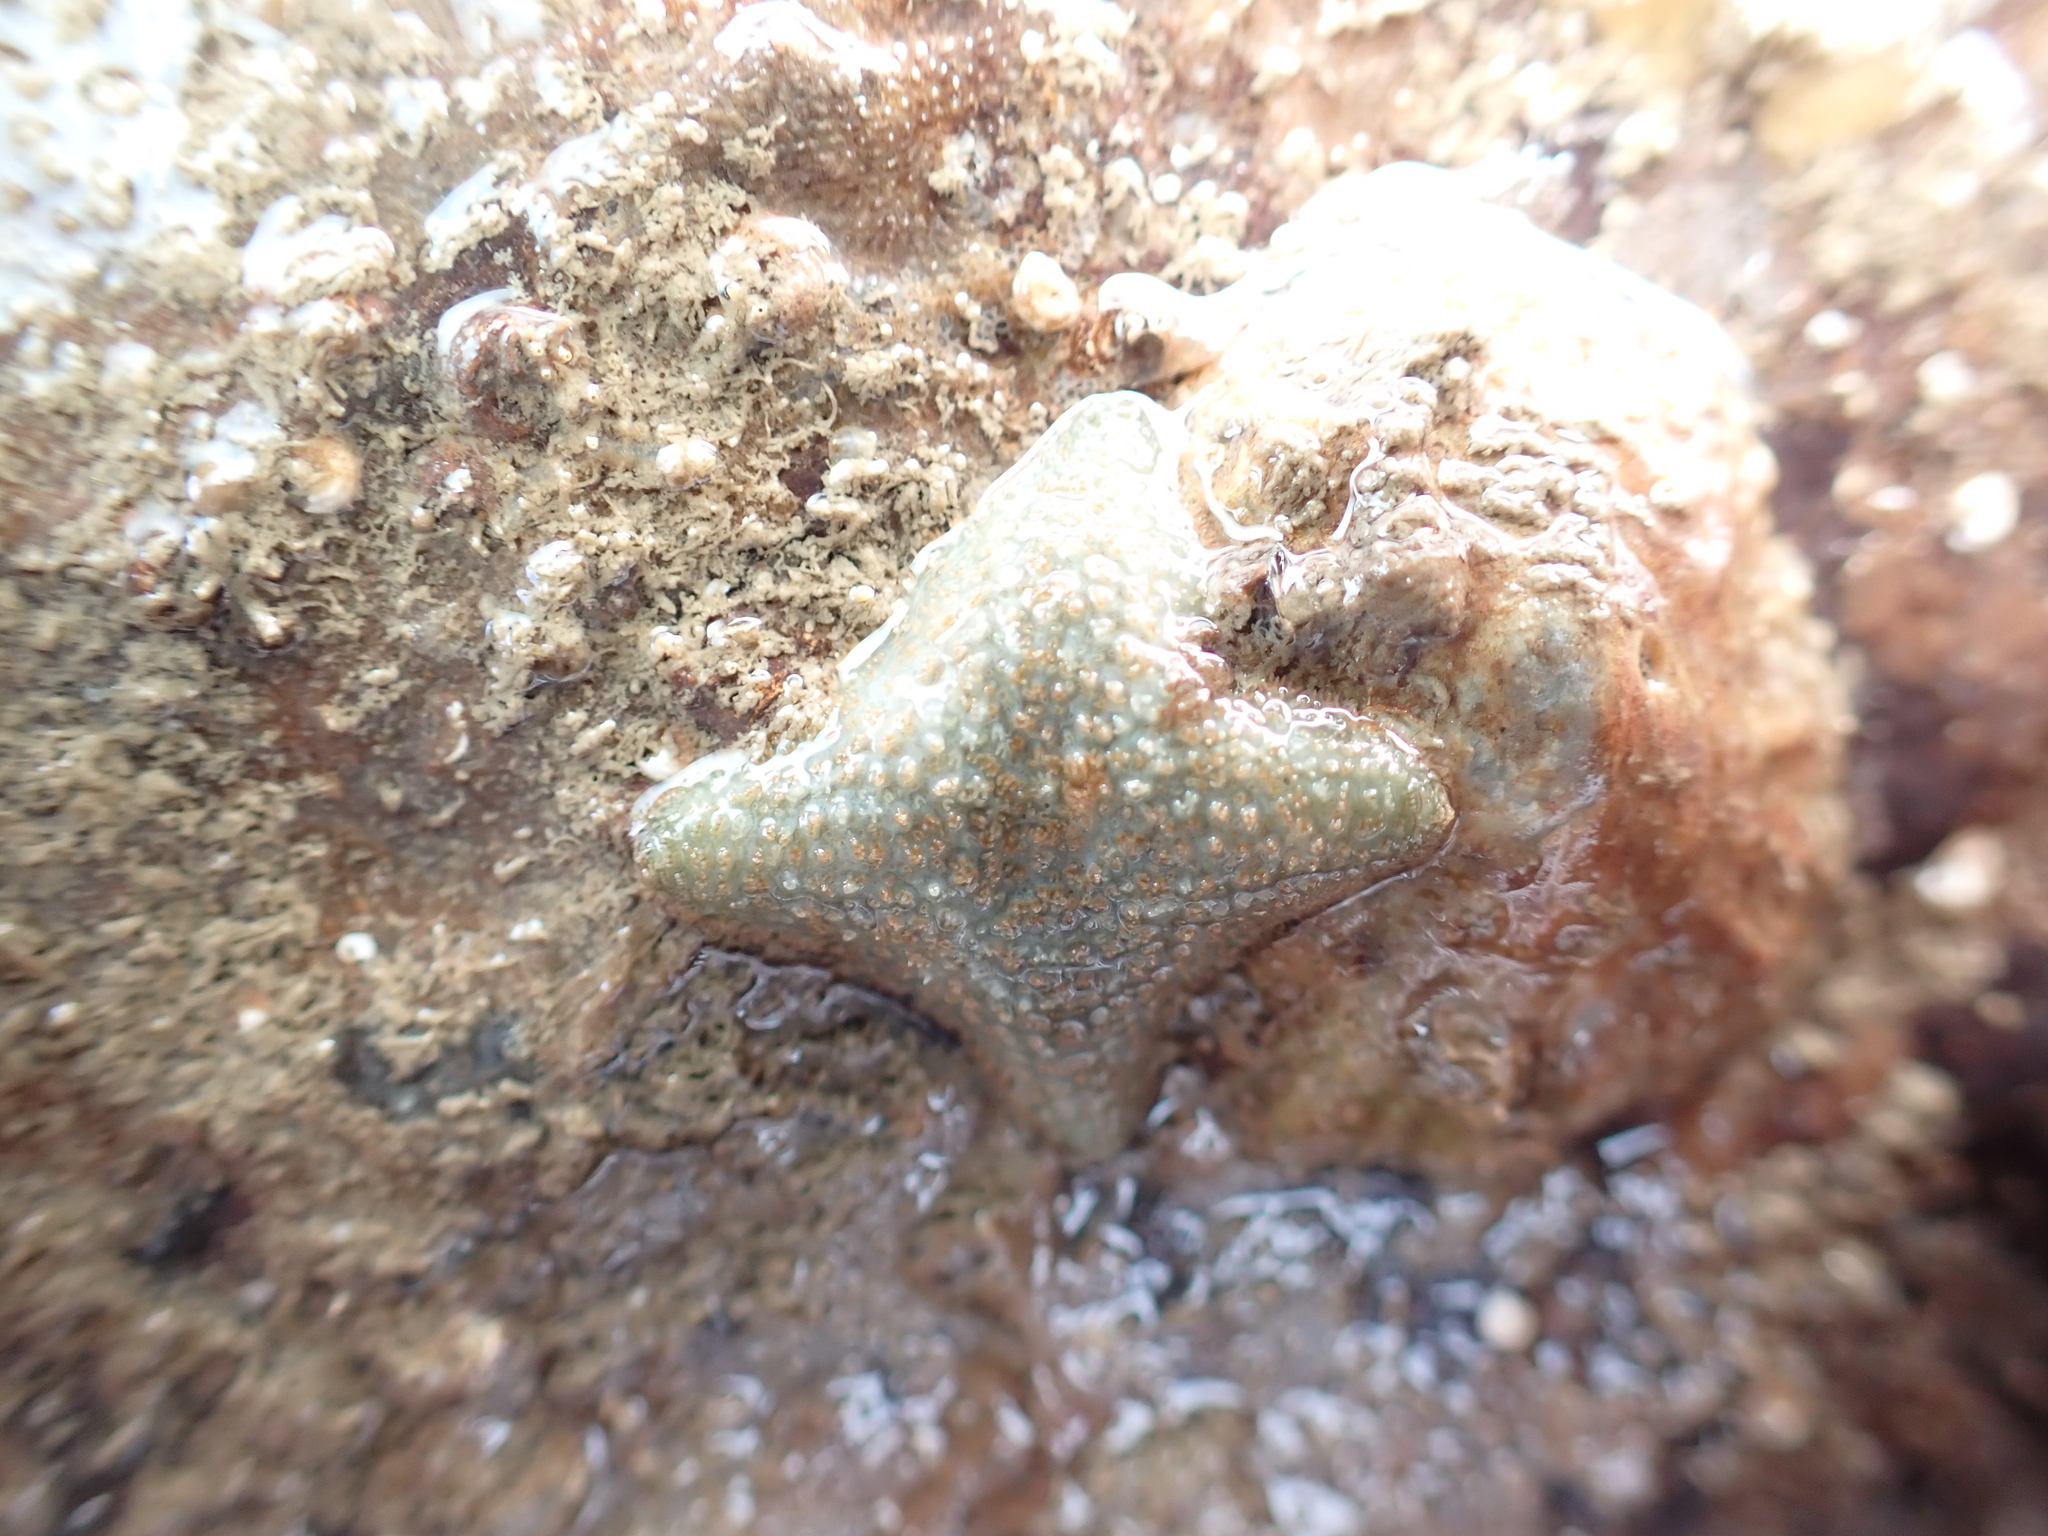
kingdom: Animalia
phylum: Echinodermata
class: Asteroidea
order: Valvatida
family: Asterinidae
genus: Asterina
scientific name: Asterina gibbosa
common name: Cushion star
